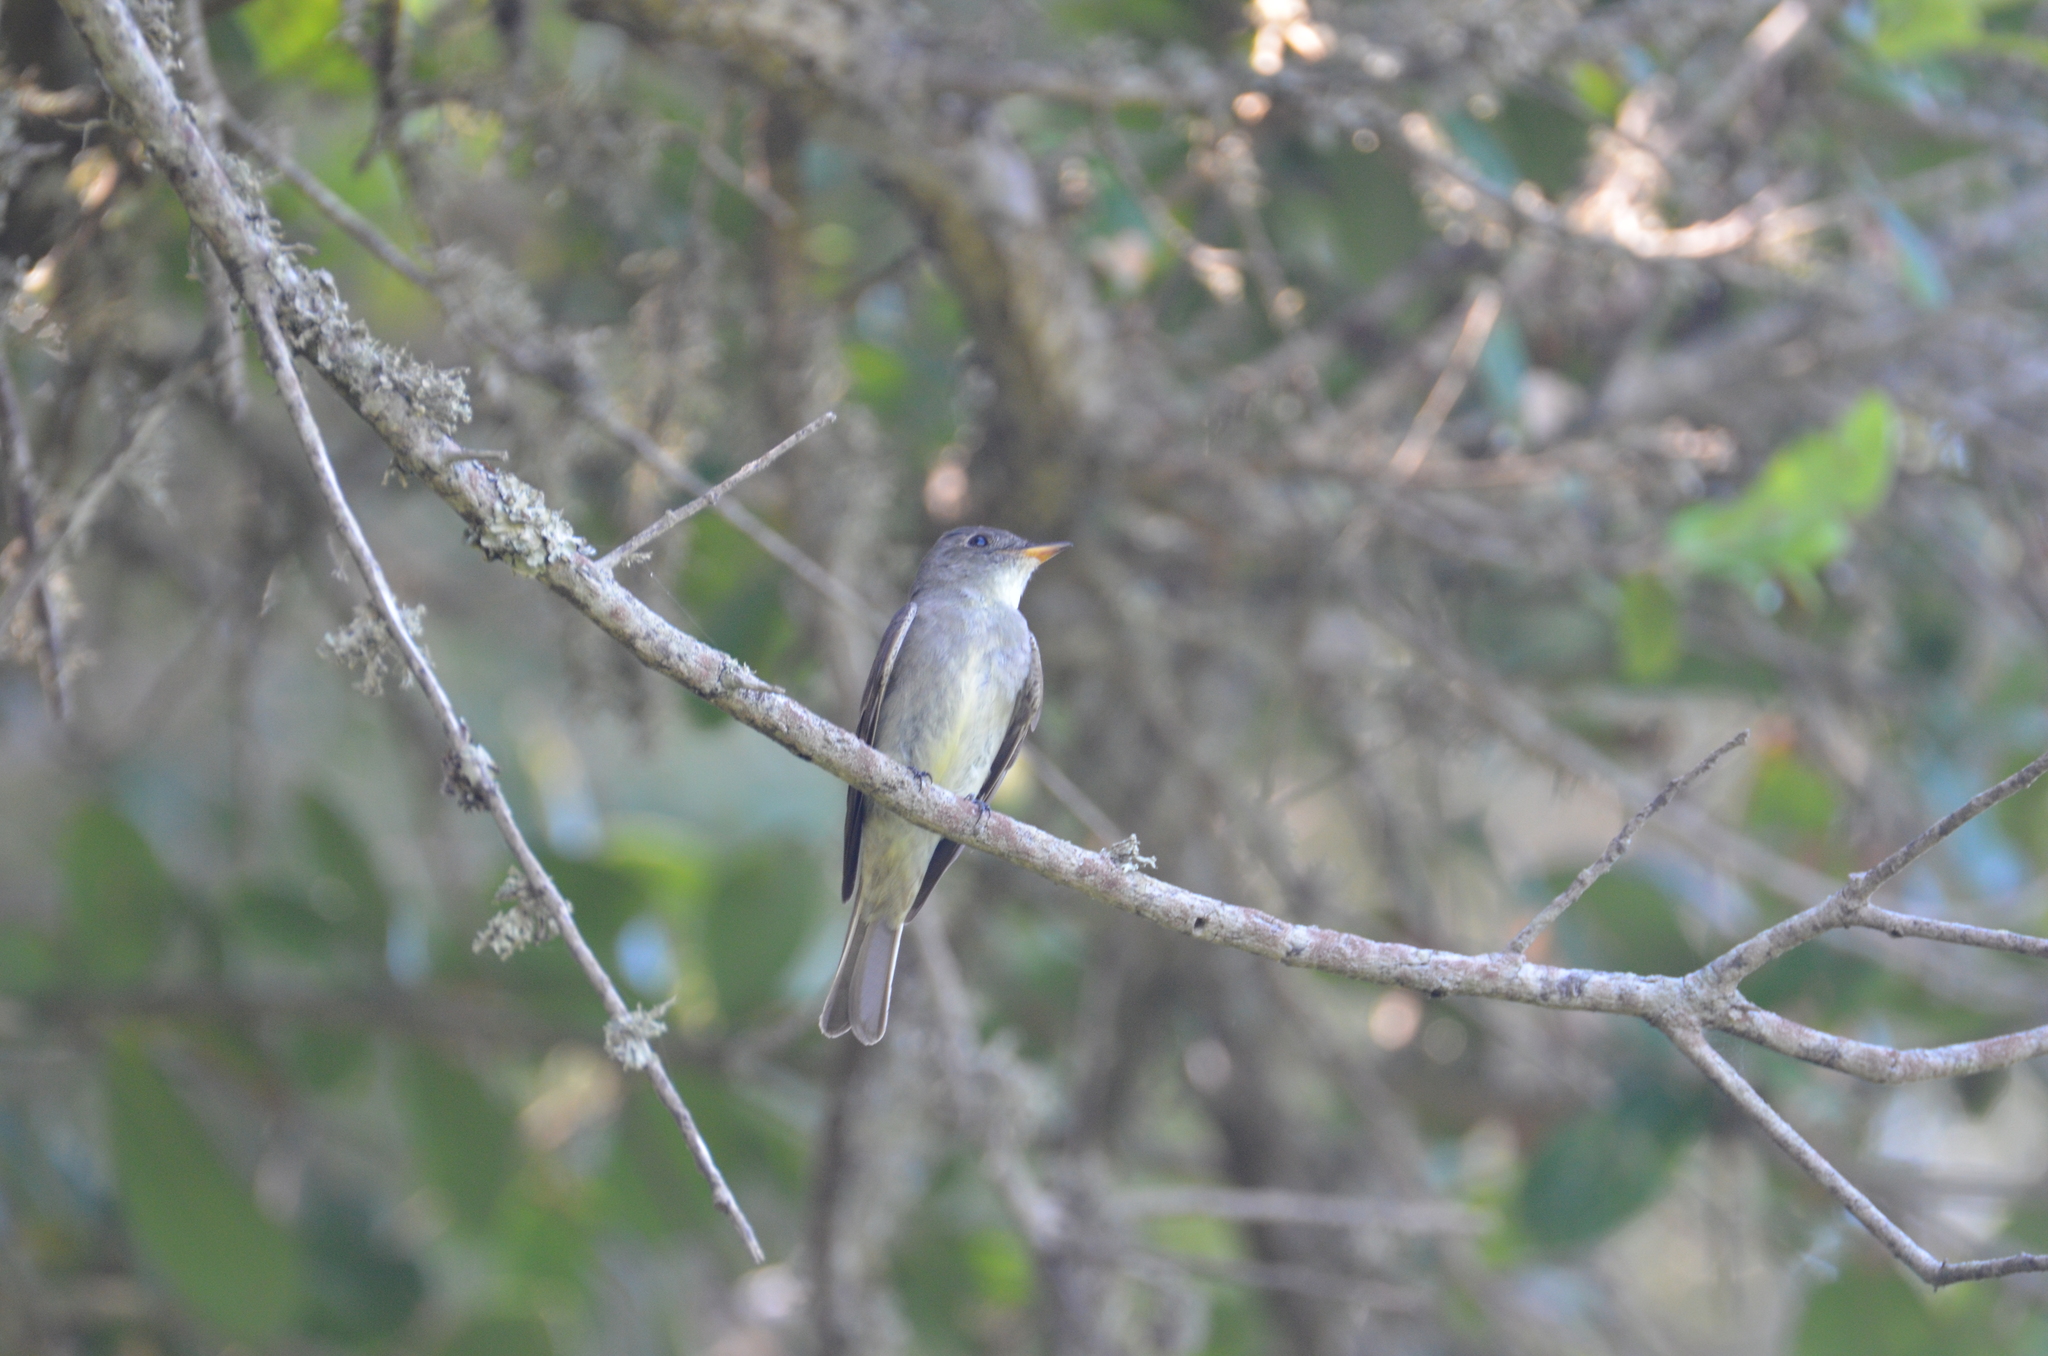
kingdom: Animalia
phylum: Chordata
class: Aves
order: Passeriformes
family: Tyrannidae
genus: Contopus
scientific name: Contopus virens
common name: Eastern wood-pewee
